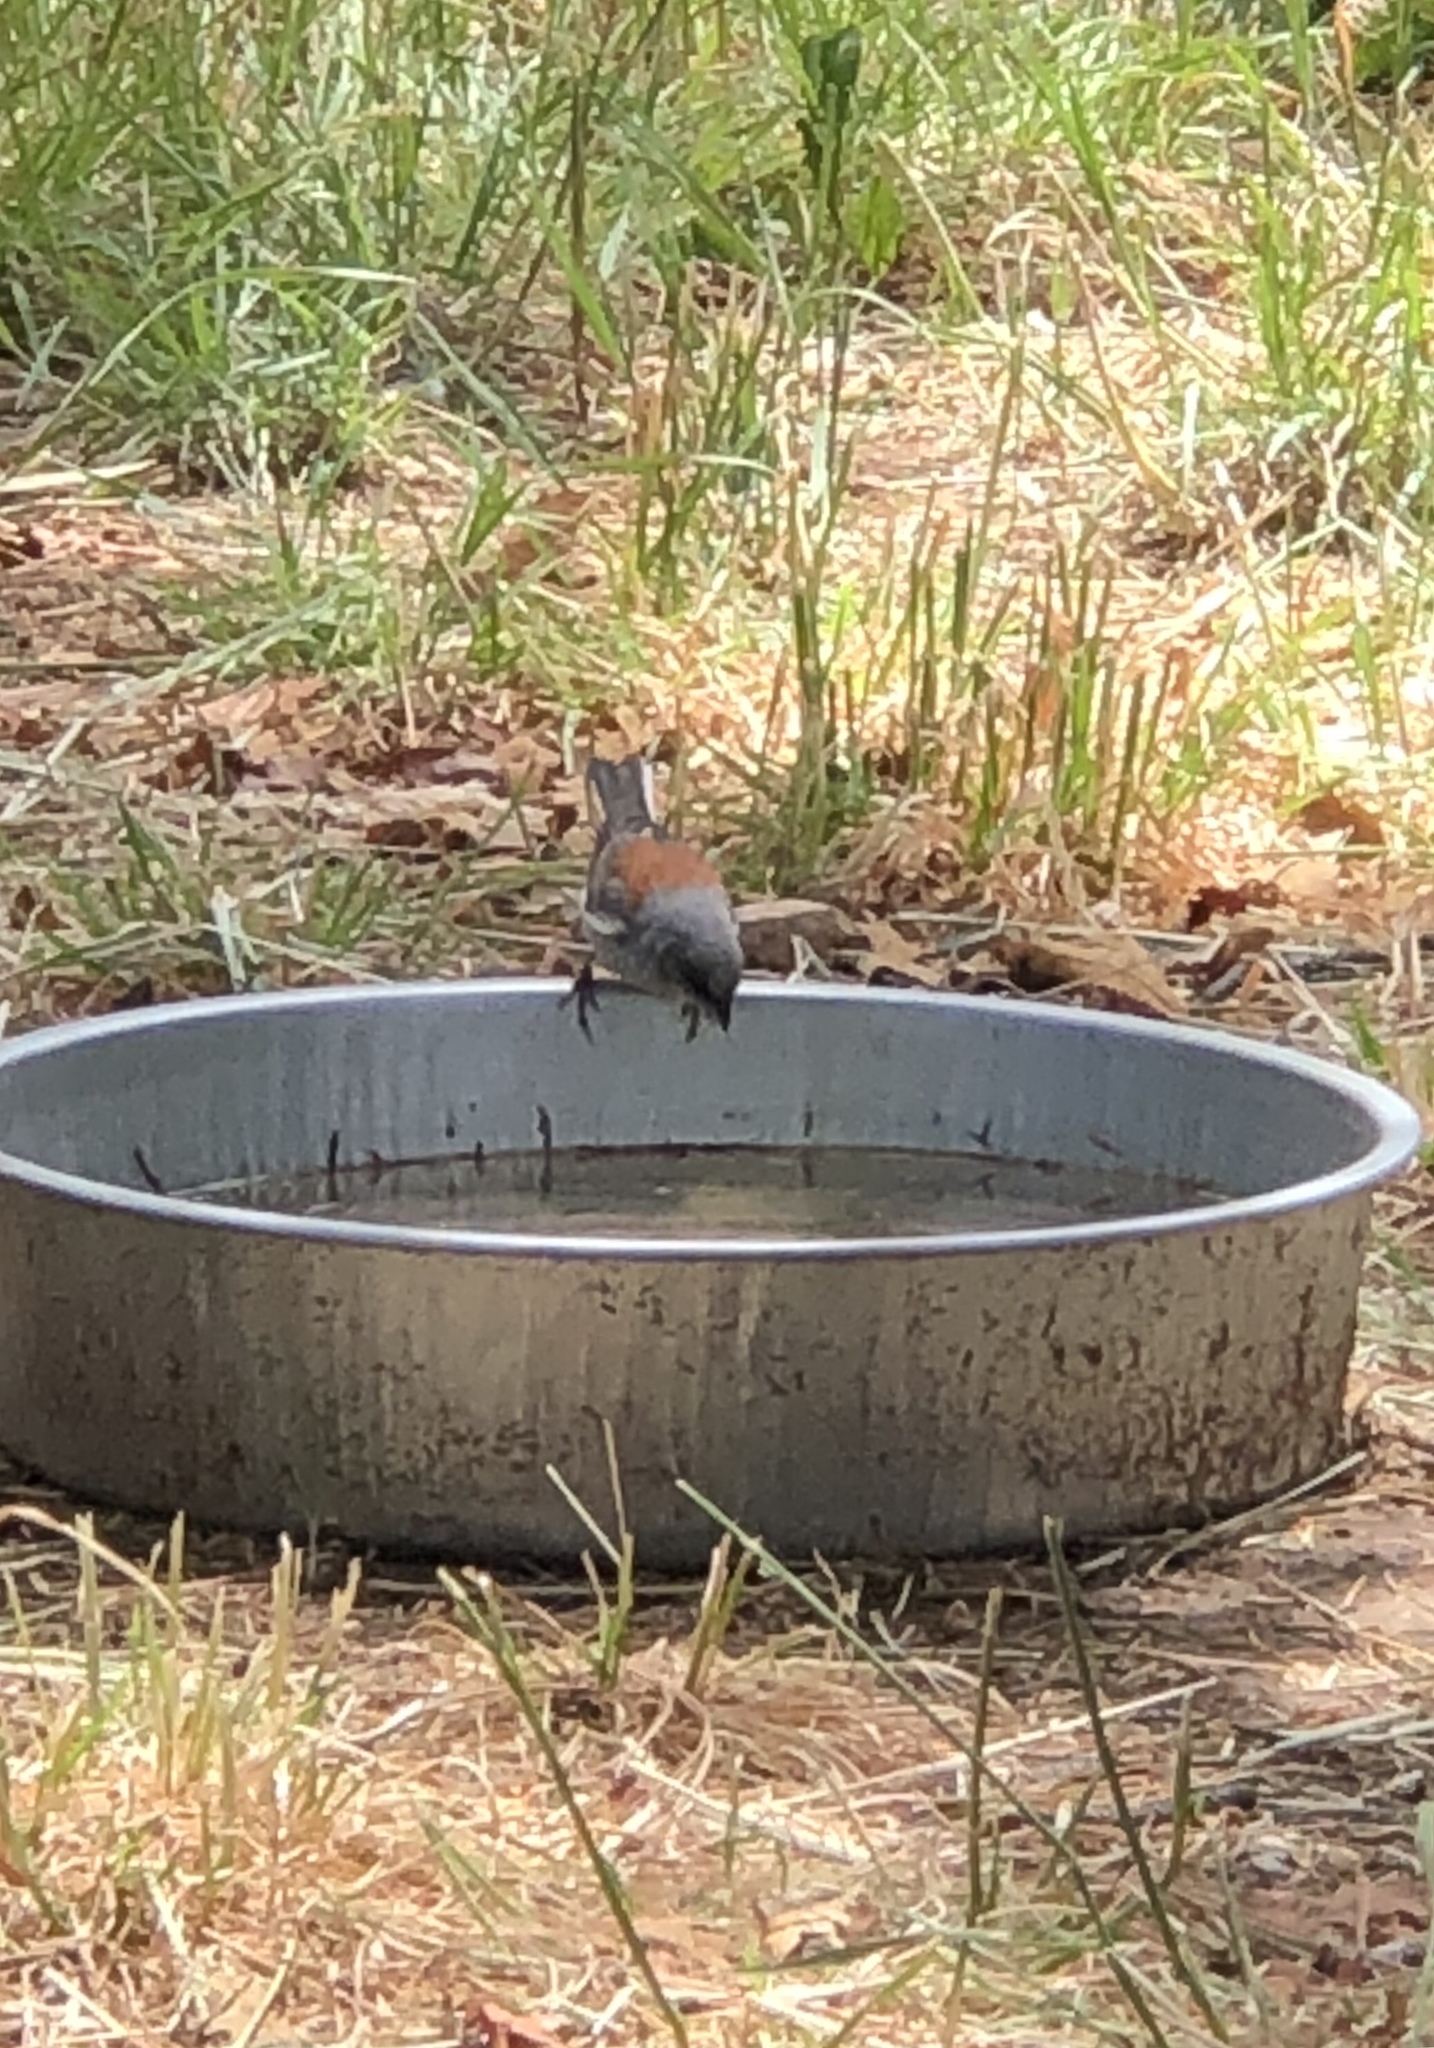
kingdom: Animalia
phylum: Chordata
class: Aves
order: Passeriformes
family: Passerellidae
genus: Junco
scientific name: Junco hyemalis
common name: Dark-eyed junco
